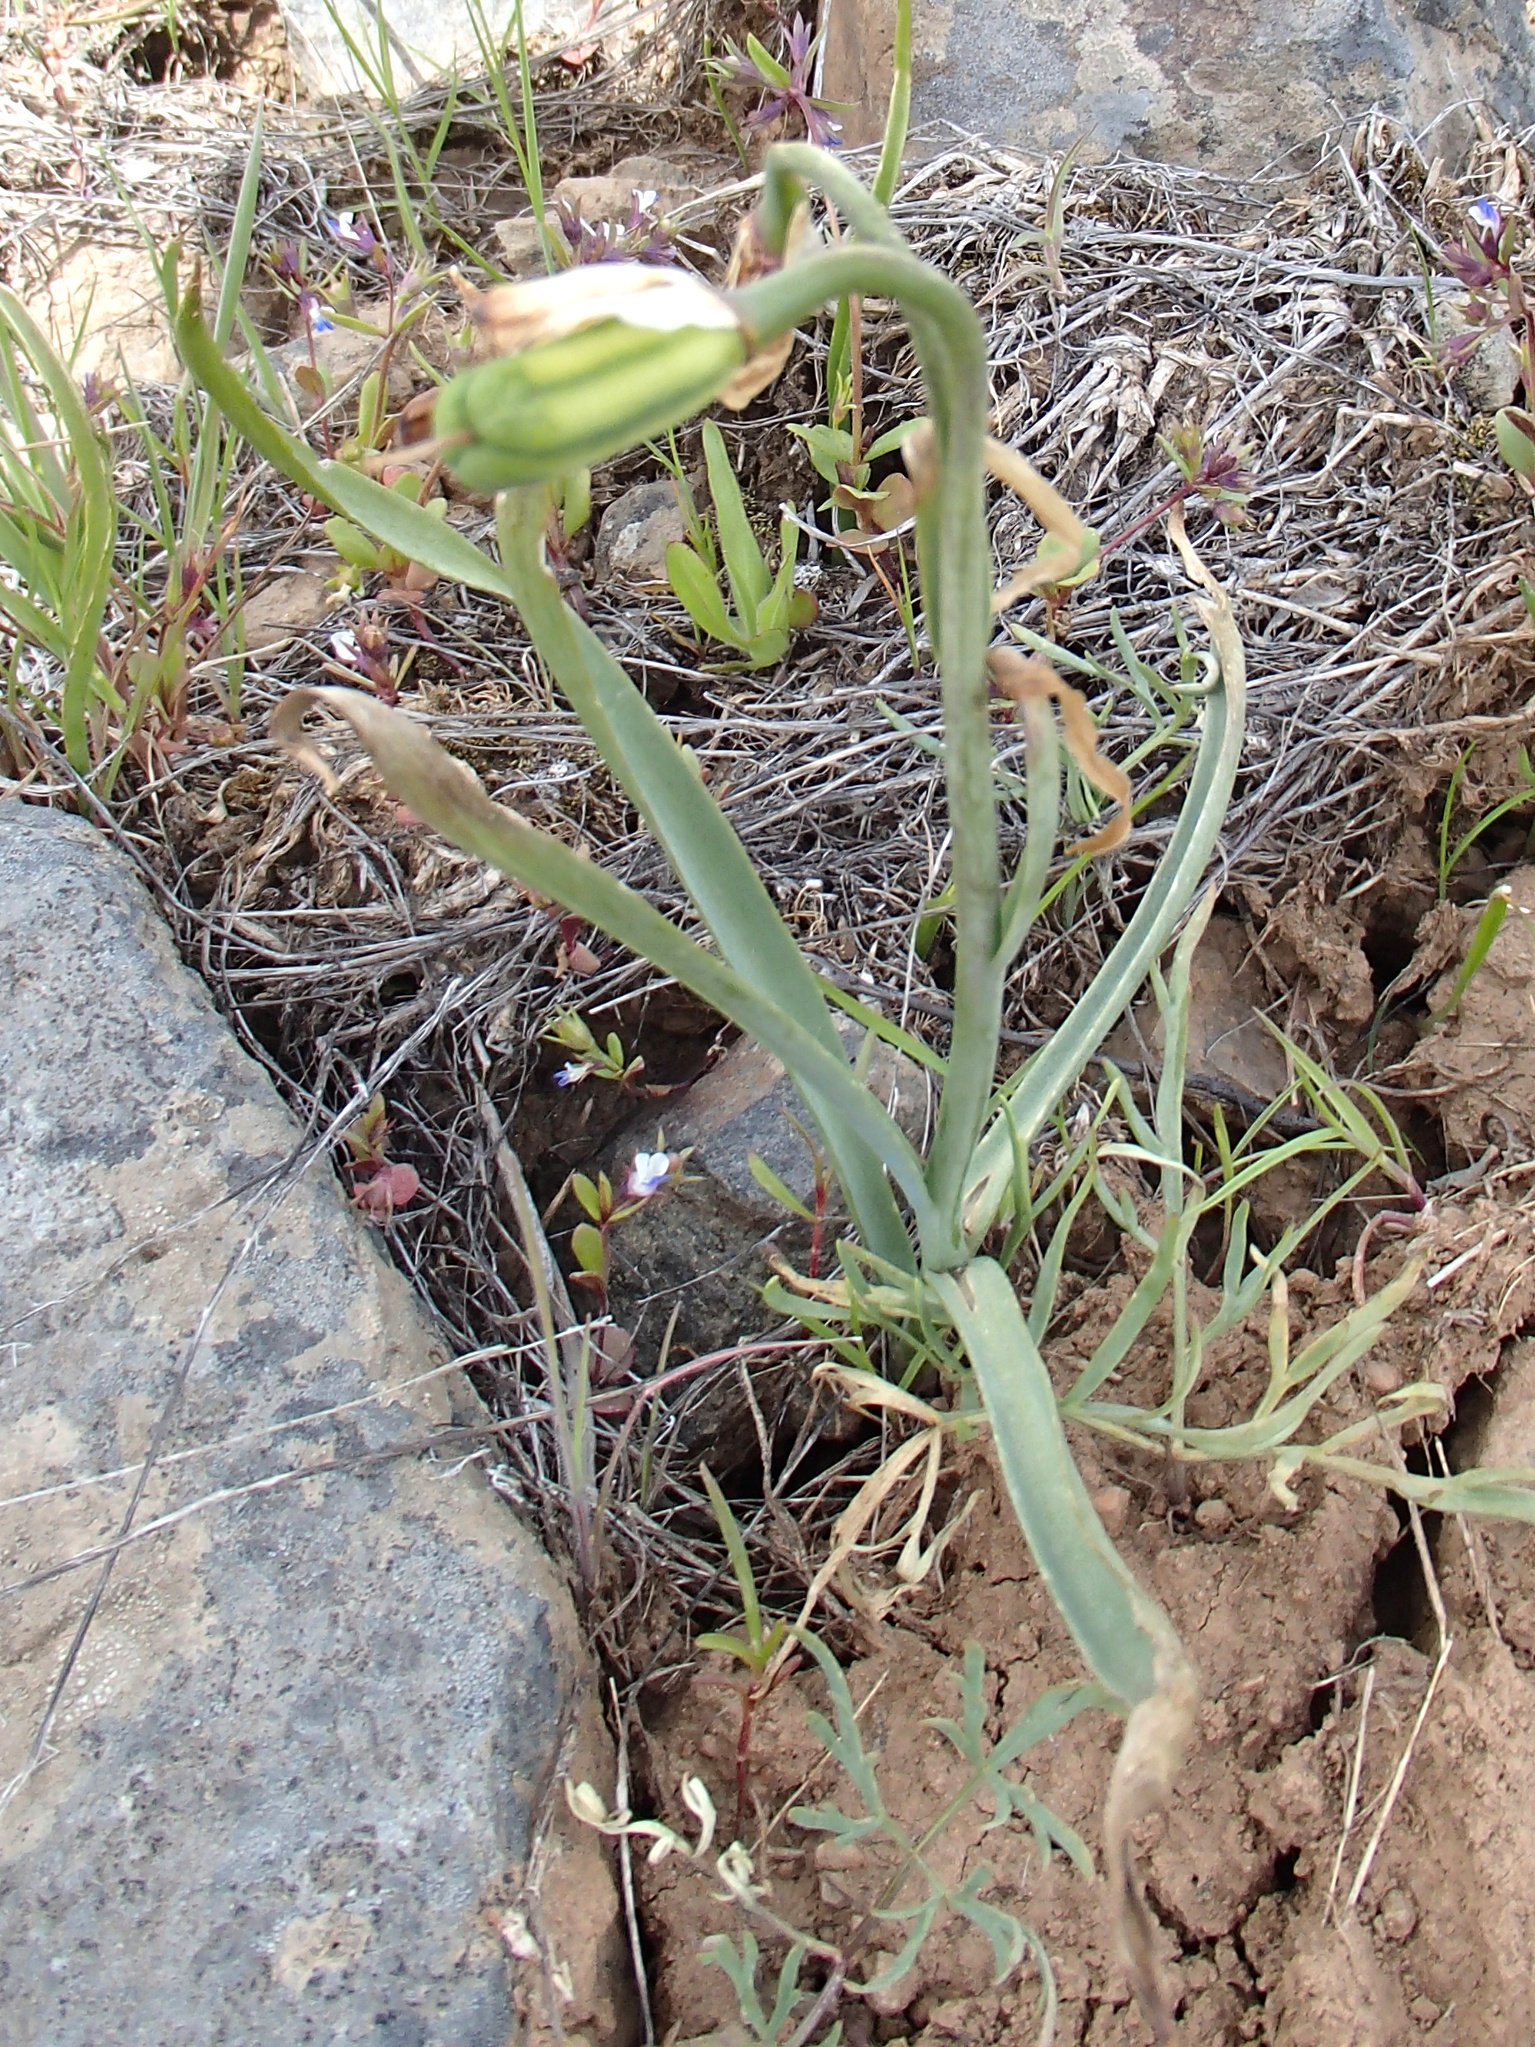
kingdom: Plantae
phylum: Tracheophyta
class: Liliopsida
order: Liliales
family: Liliaceae
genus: Fritillaria
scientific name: Fritillaria pudica
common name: Yellow fritillary
